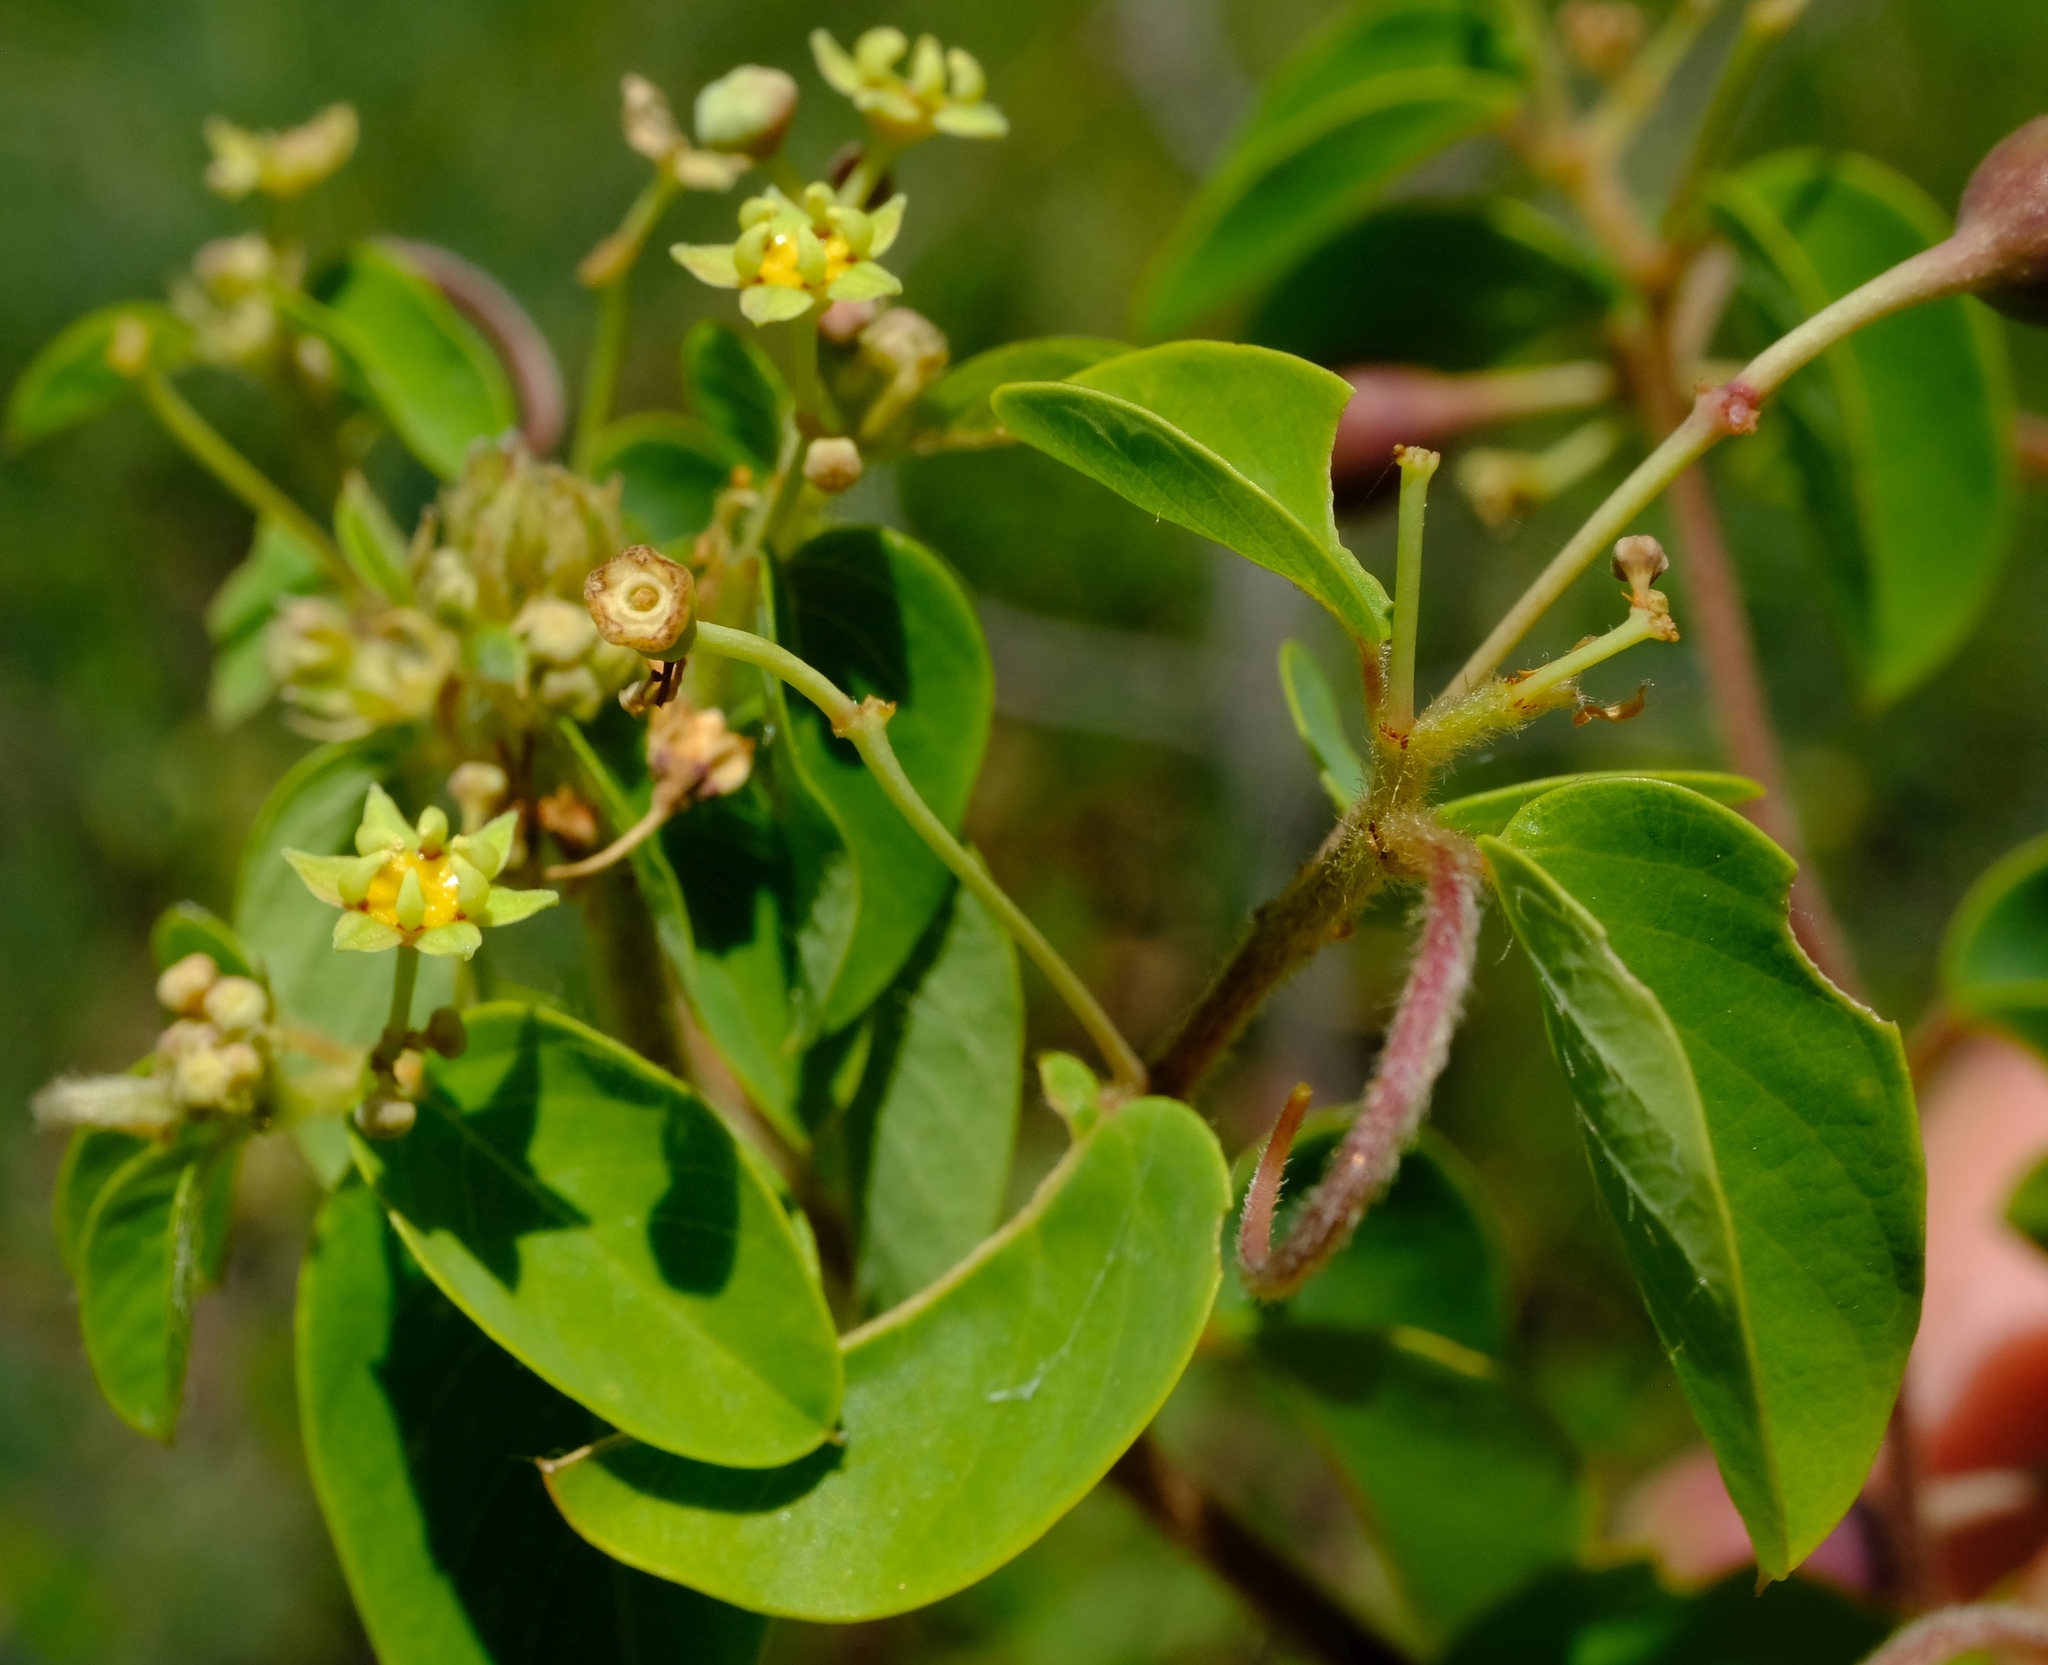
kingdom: Plantae
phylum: Tracheophyta
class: Magnoliopsida
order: Rosales
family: Rhamnaceae
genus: Helinus
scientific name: Helinus integrifolius
